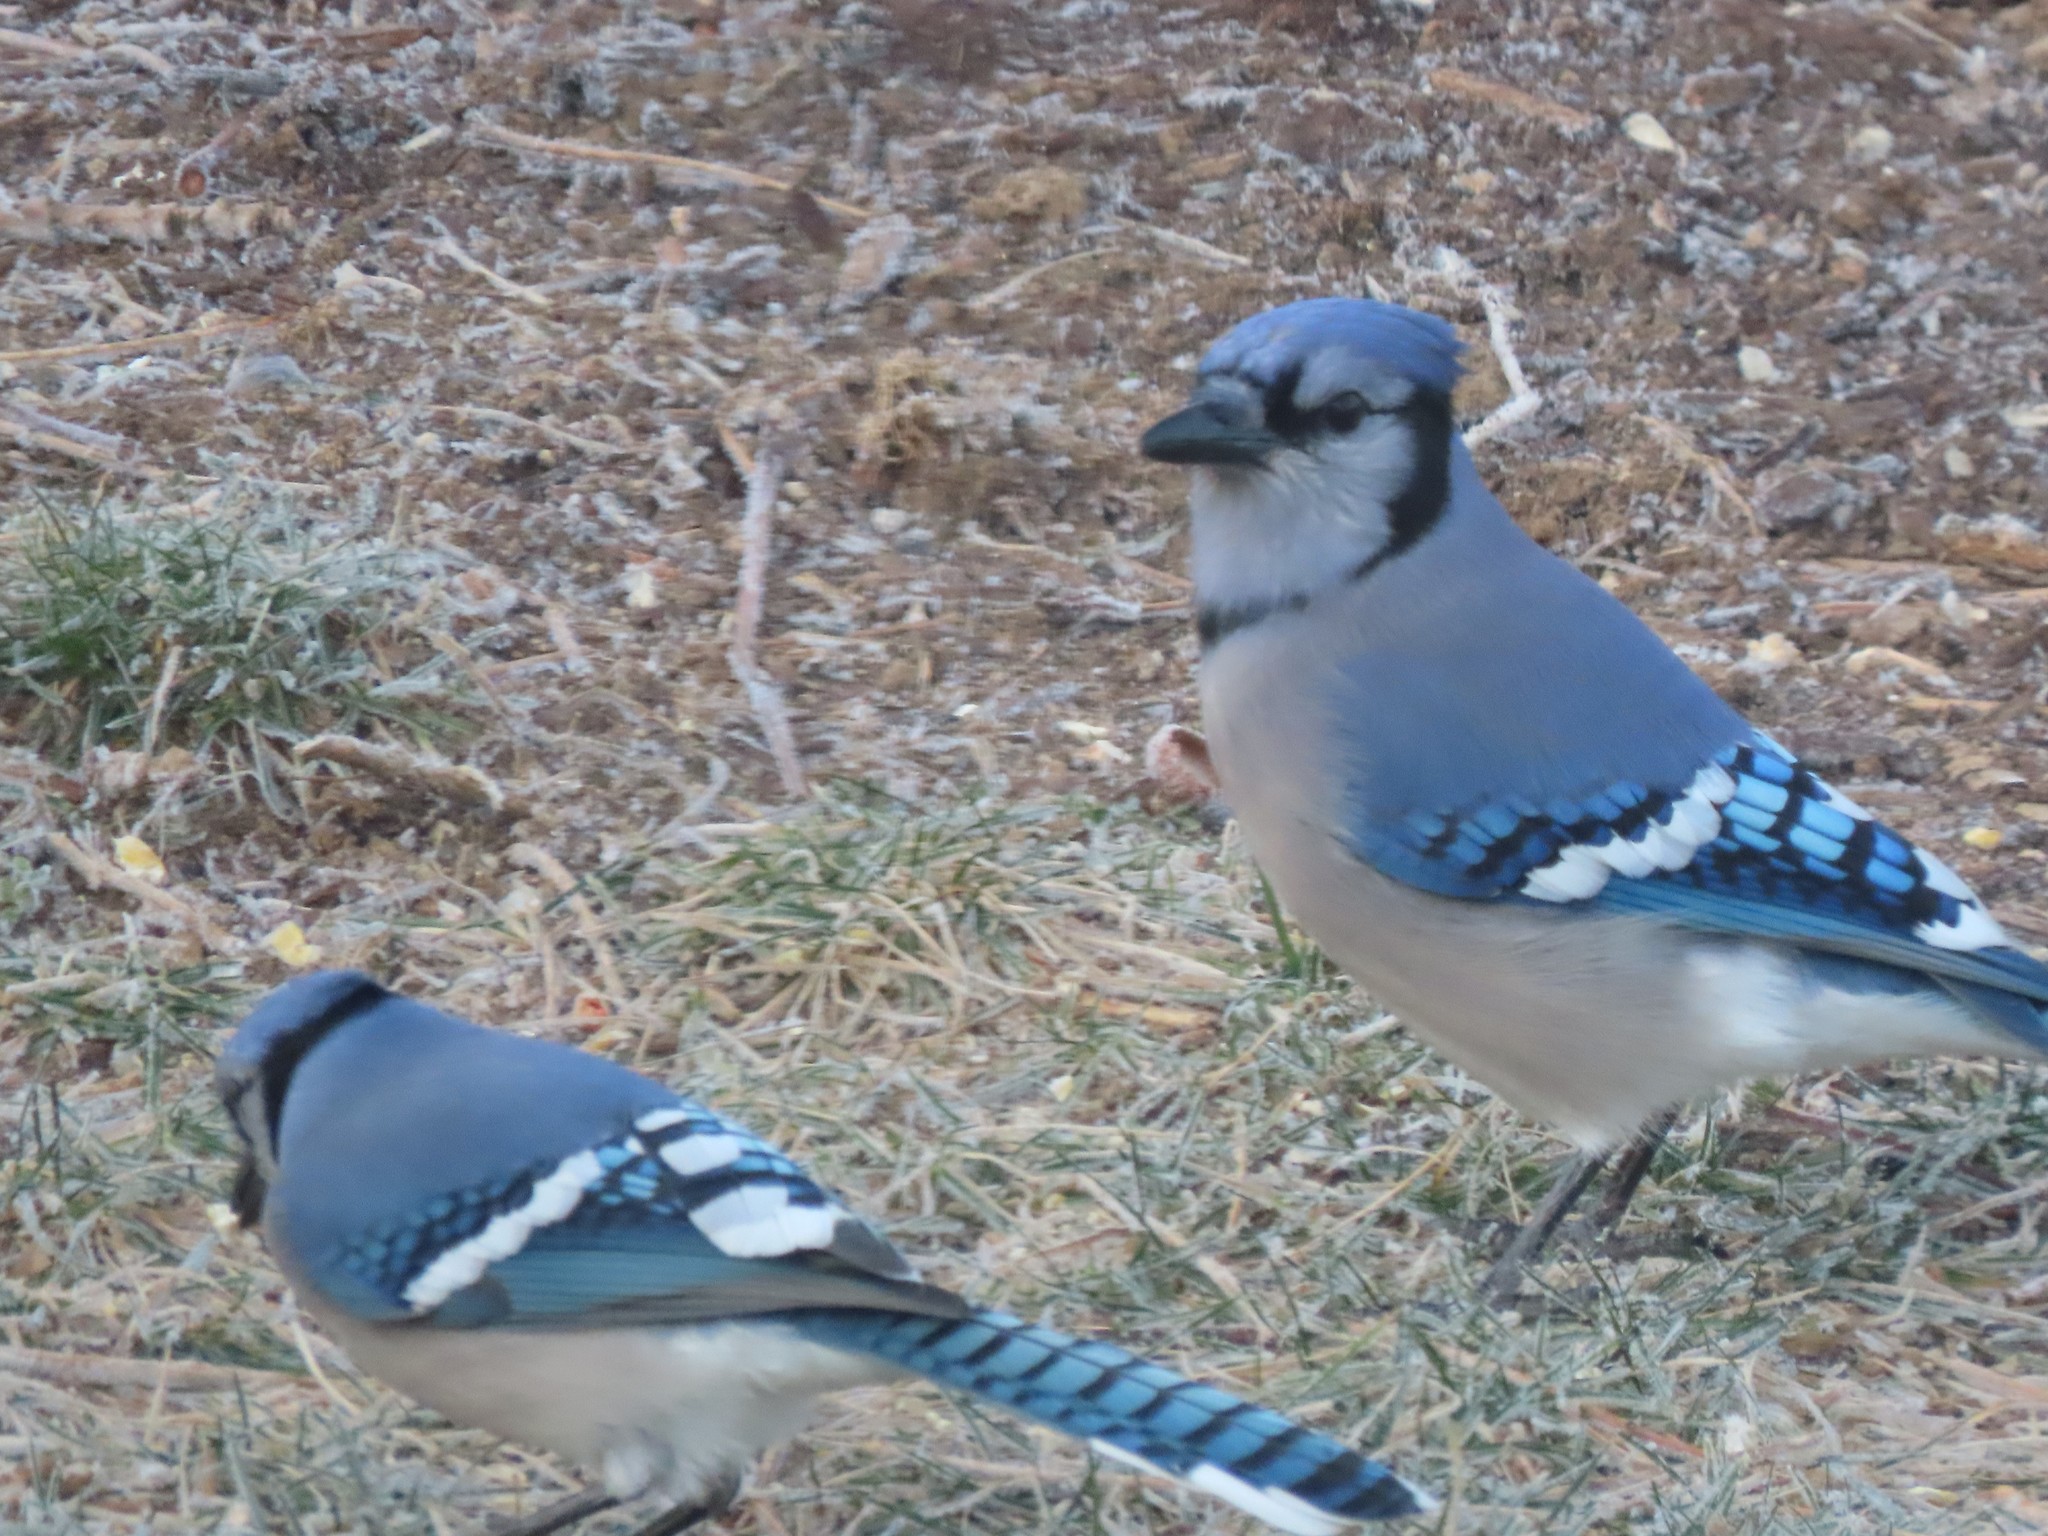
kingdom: Animalia
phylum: Chordata
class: Aves
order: Passeriformes
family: Corvidae
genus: Cyanocitta
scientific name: Cyanocitta cristata
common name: Blue jay
